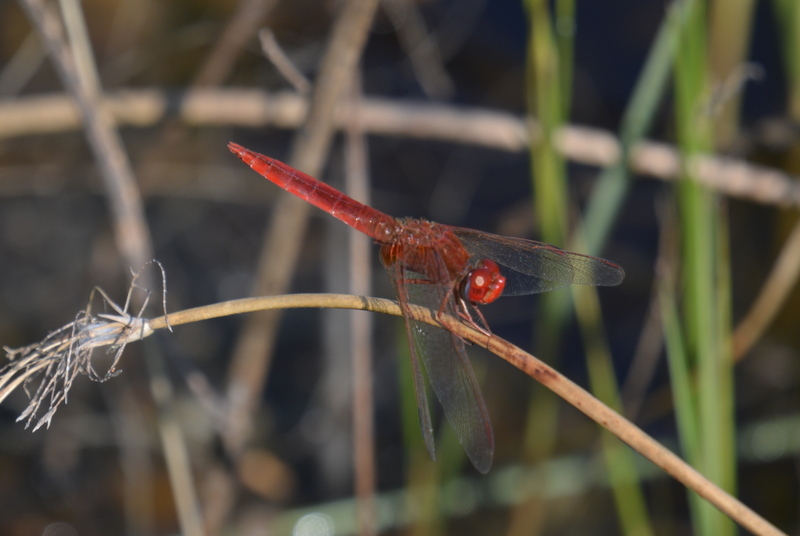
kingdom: Animalia
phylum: Arthropoda
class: Insecta
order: Odonata
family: Libellulidae
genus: Crocothemis
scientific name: Crocothemis erythraea
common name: Scarlet dragonfly
